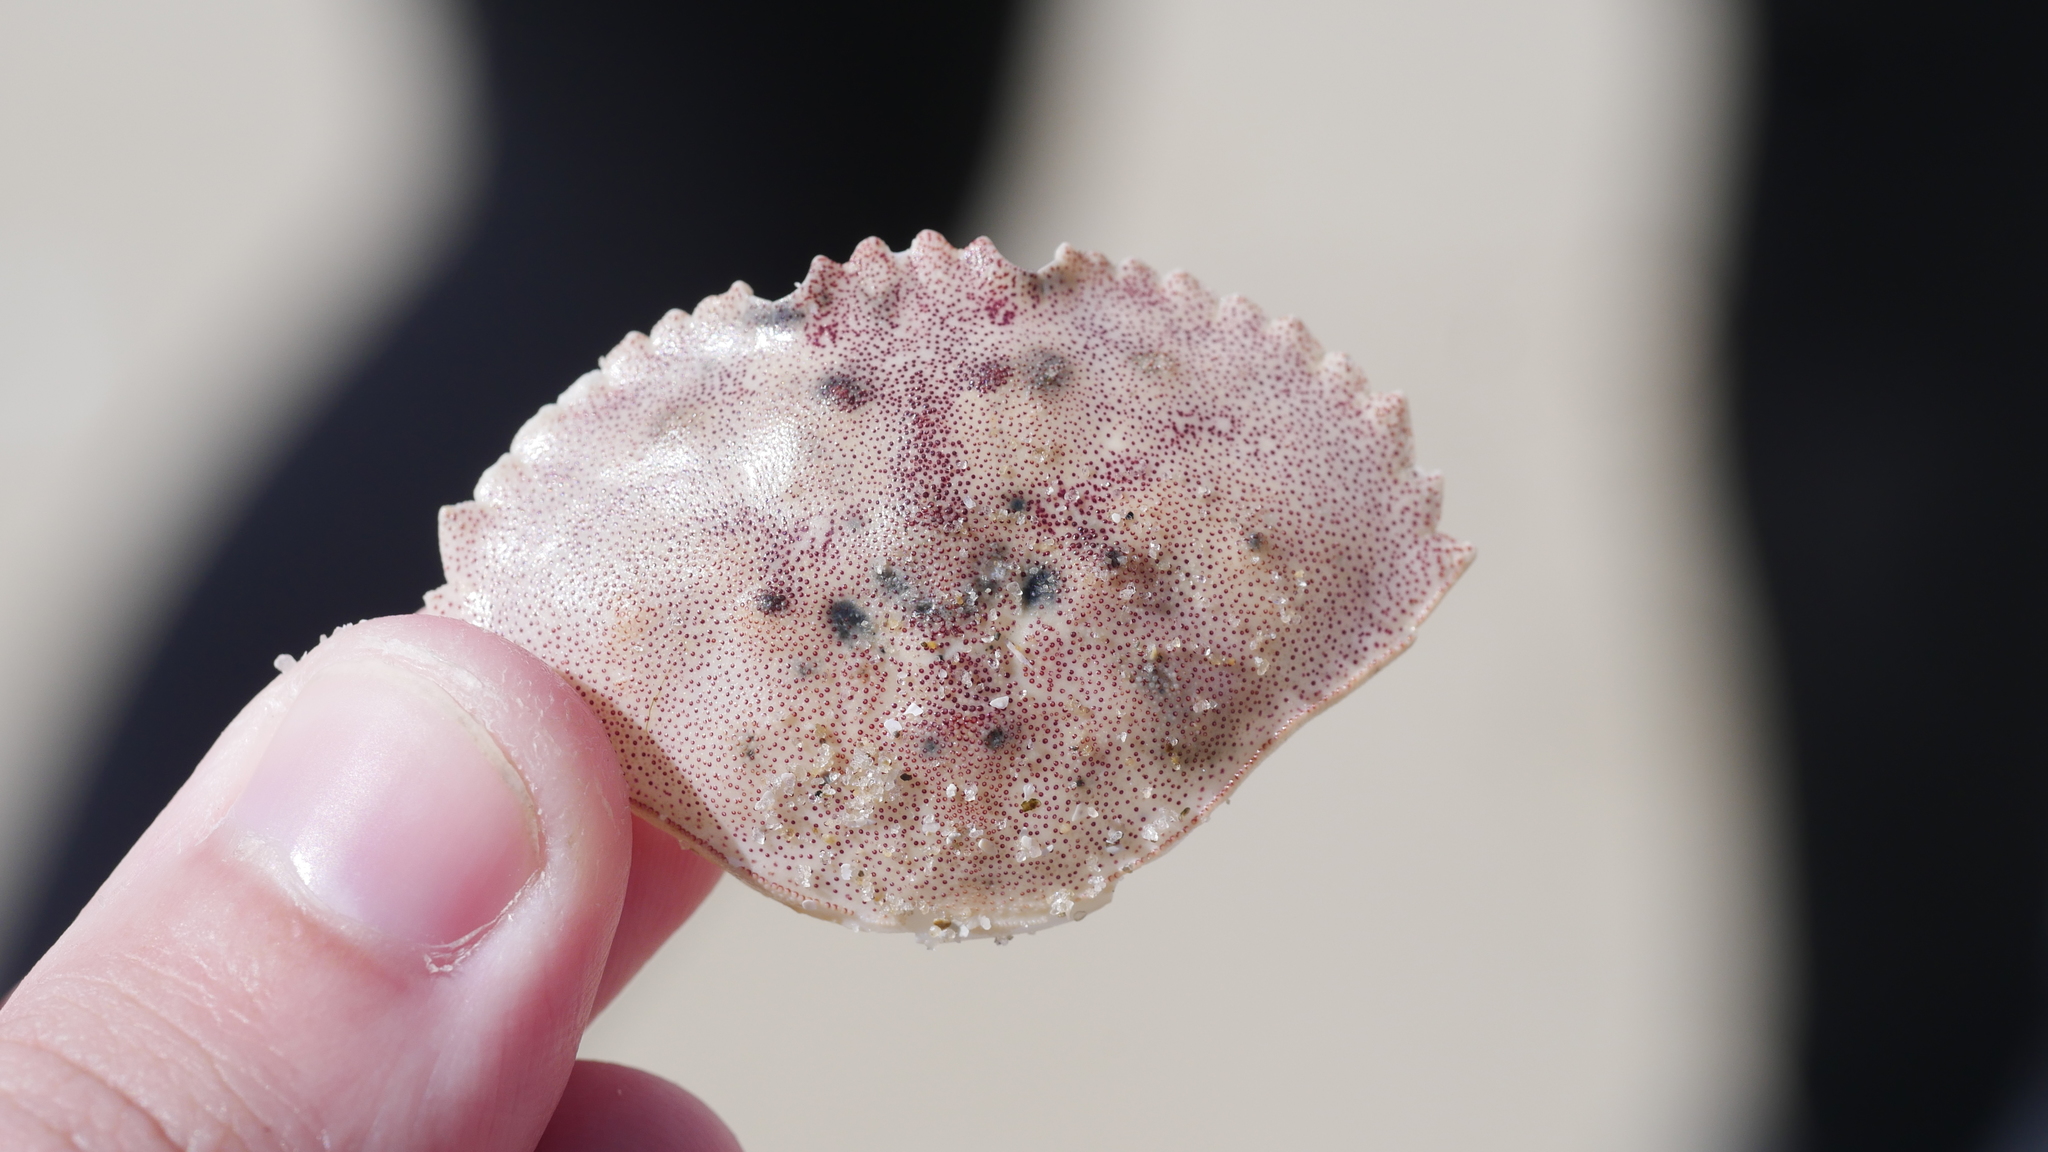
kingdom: Animalia
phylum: Arthropoda
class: Malacostraca
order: Decapoda
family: Cancridae
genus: Cancer
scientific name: Cancer irroratus
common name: Atlantic rock crab
